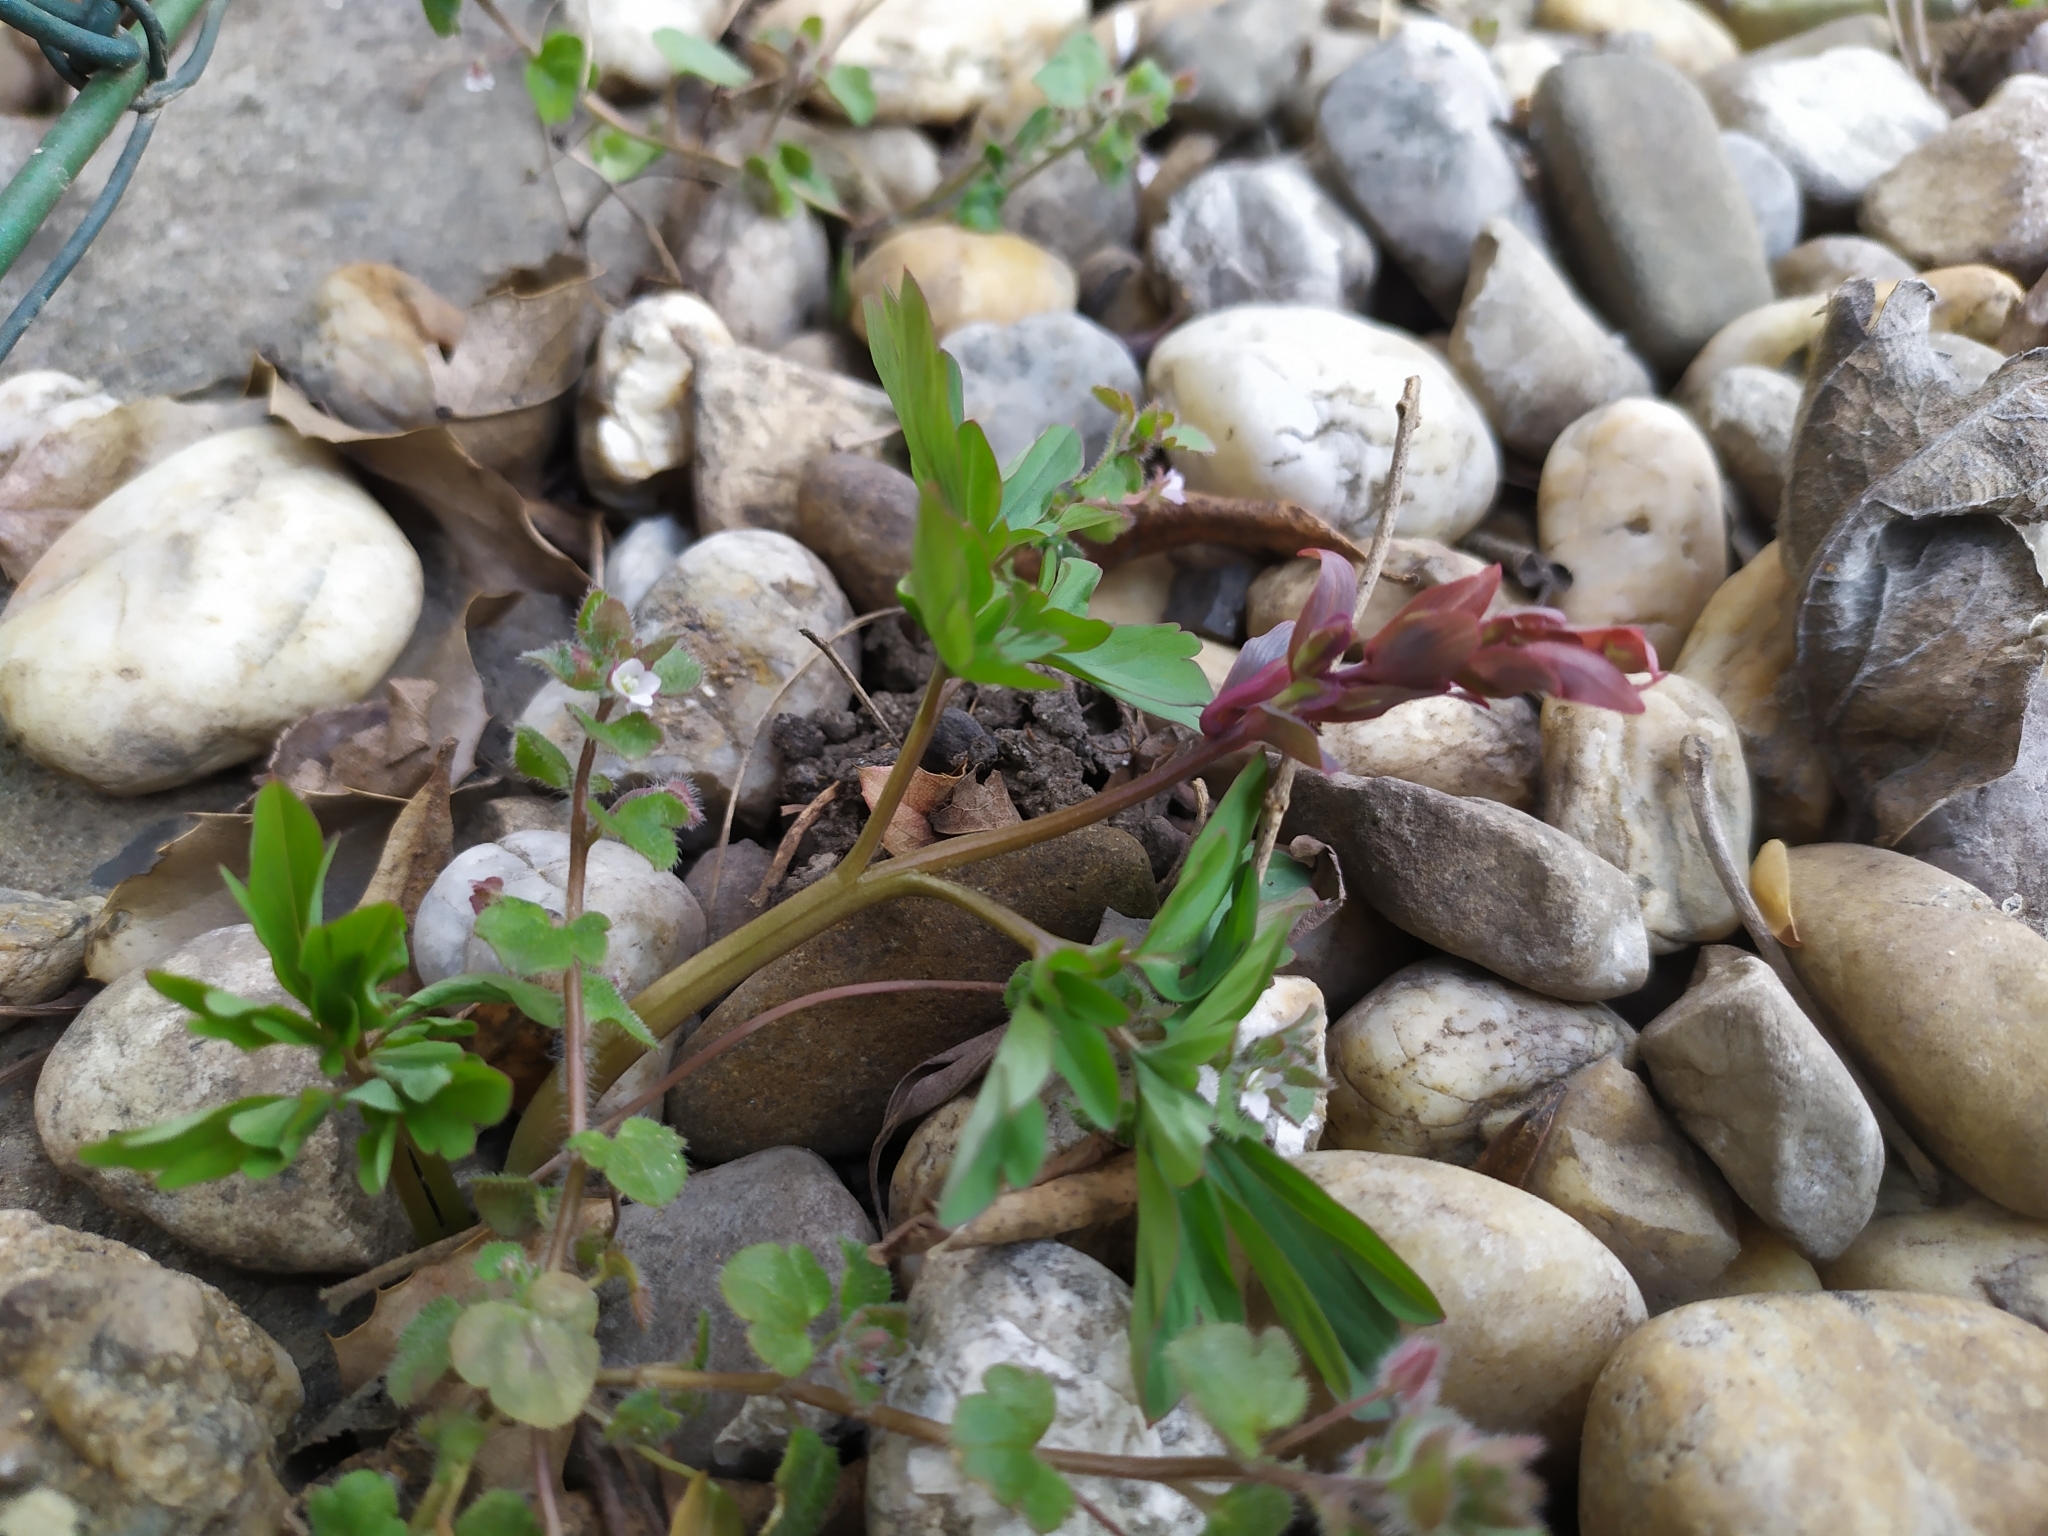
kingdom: Plantae
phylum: Tracheophyta
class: Magnoliopsida
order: Ranunculales
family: Papaveraceae
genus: Corydalis
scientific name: Corydalis cava
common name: Hollowroot
